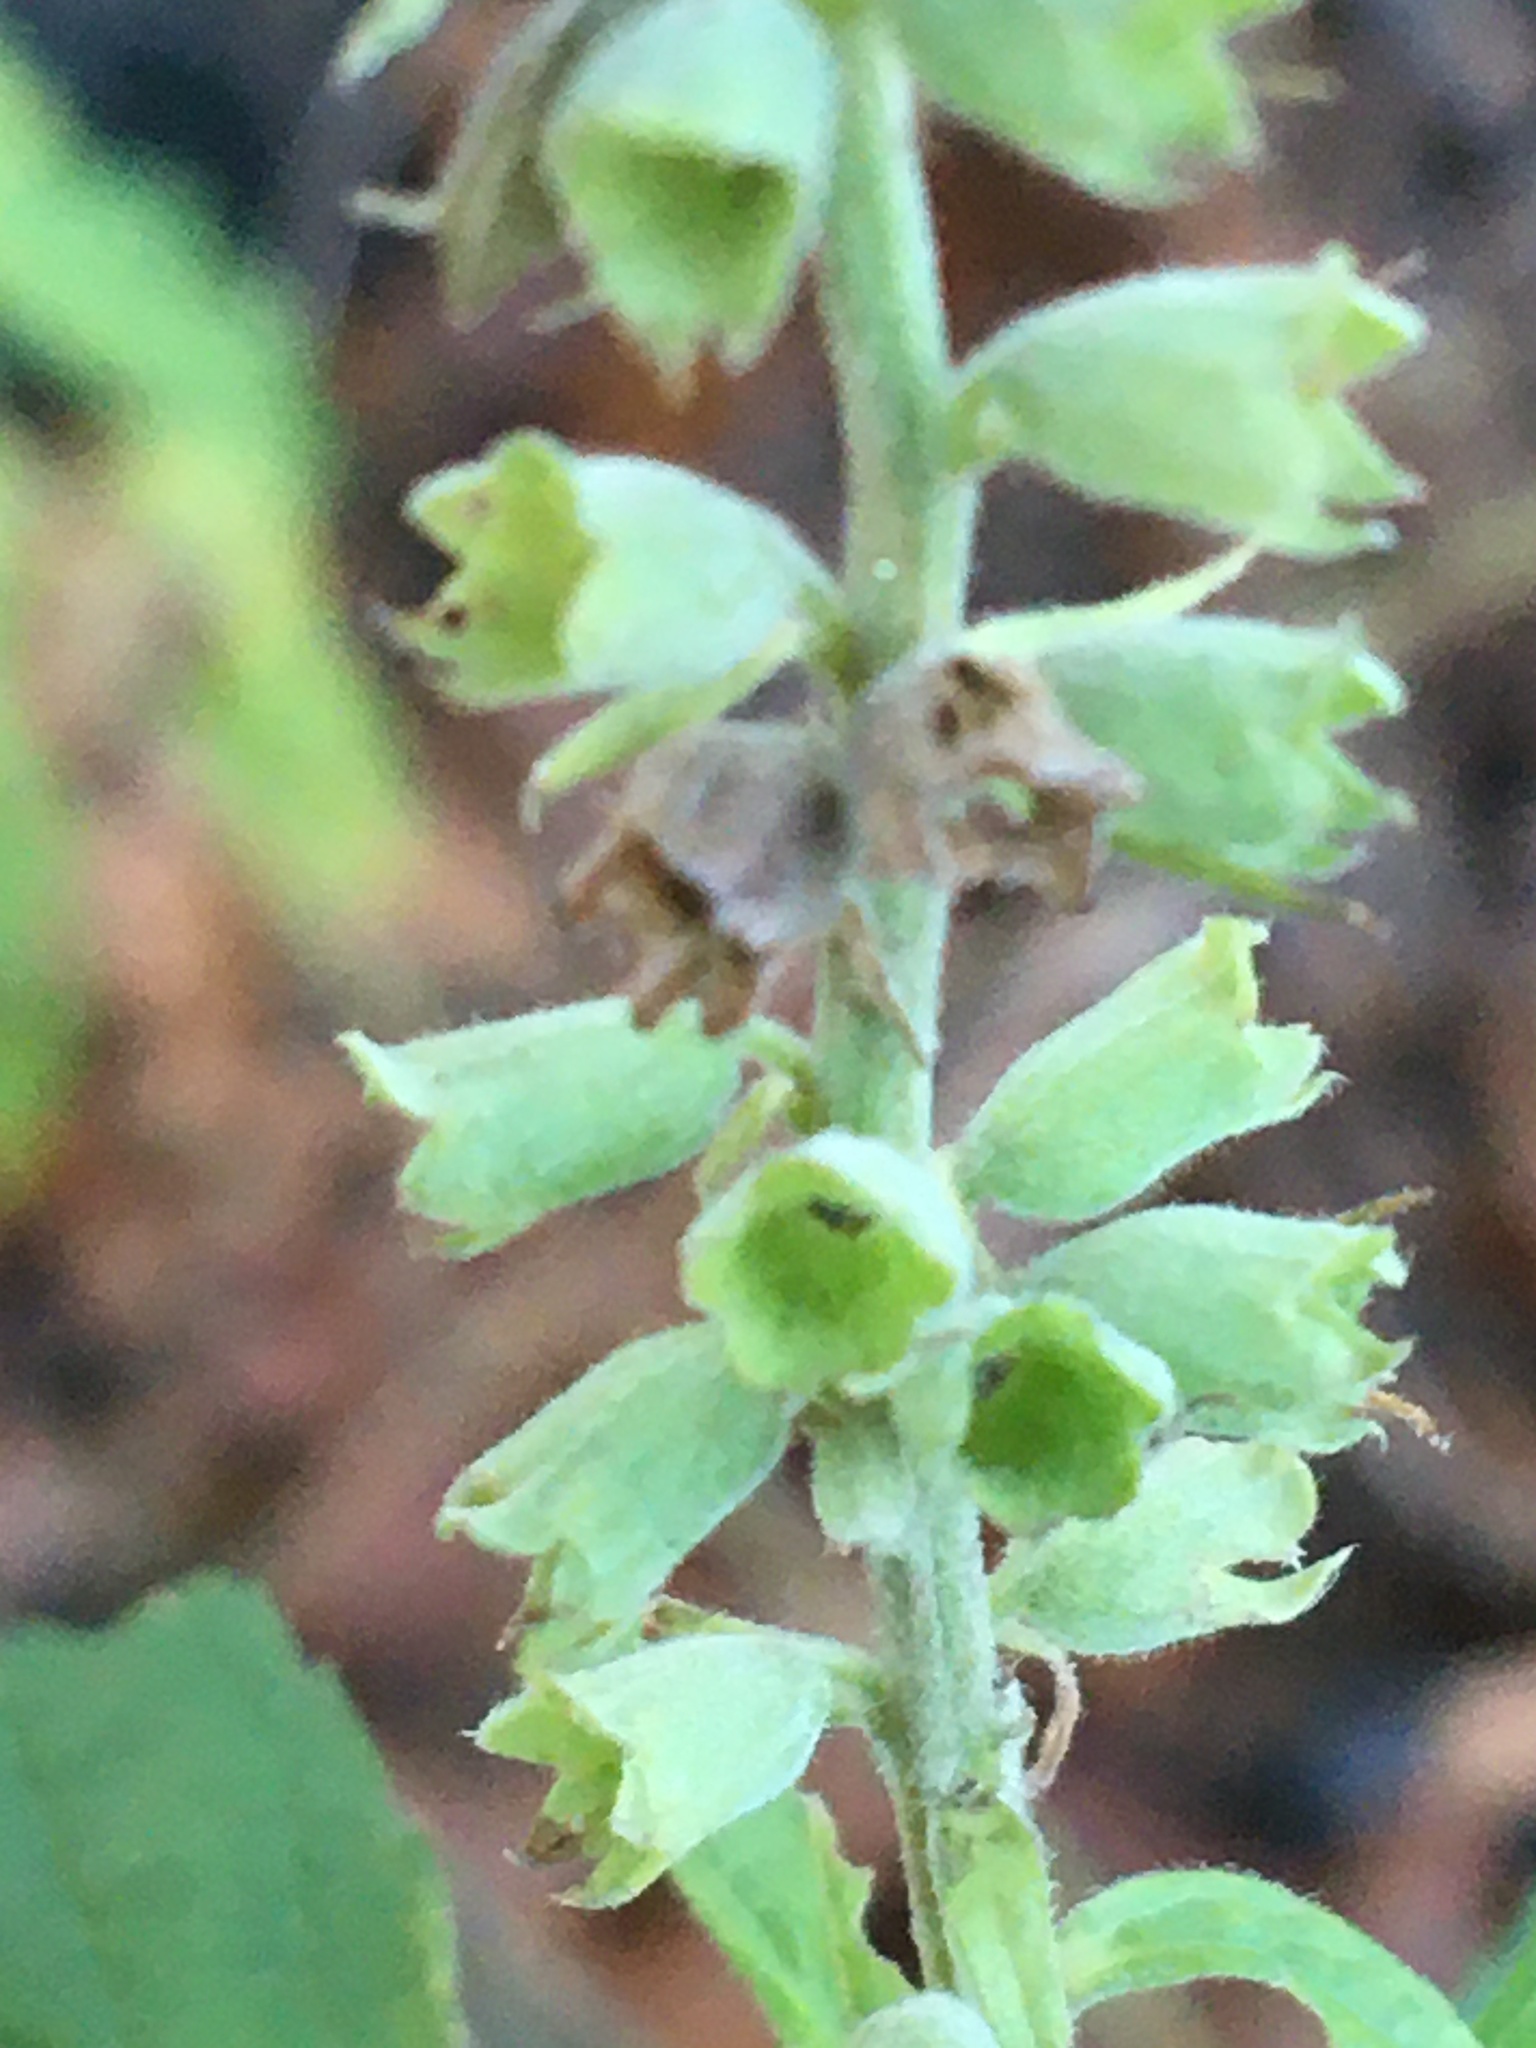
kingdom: Plantae
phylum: Tracheophyta
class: Magnoliopsida
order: Lamiales
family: Lamiaceae
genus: Teucrium
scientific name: Teucrium canadense
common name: American germander
